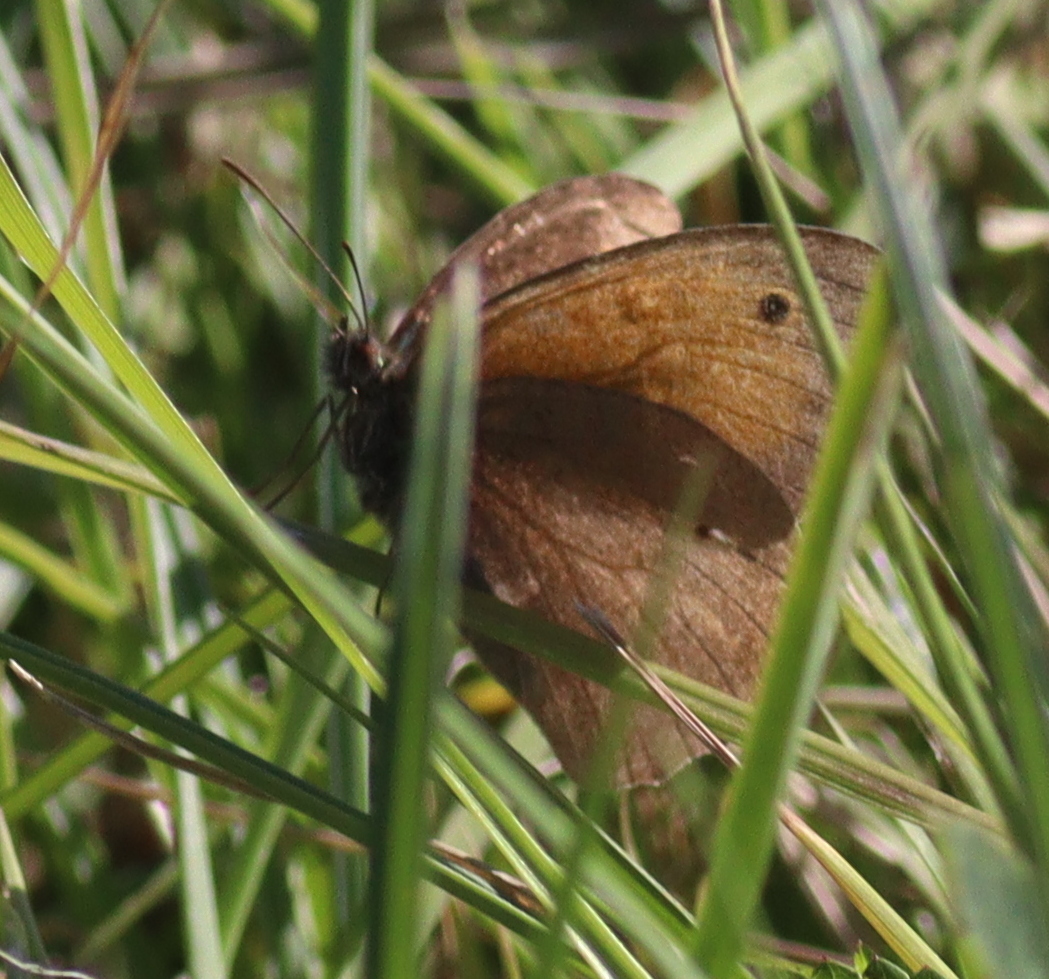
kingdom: Animalia
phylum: Arthropoda
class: Insecta
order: Lepidoptera
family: Nymphalidae
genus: Maniola
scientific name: Maniola jurtina
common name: Meadow brown
